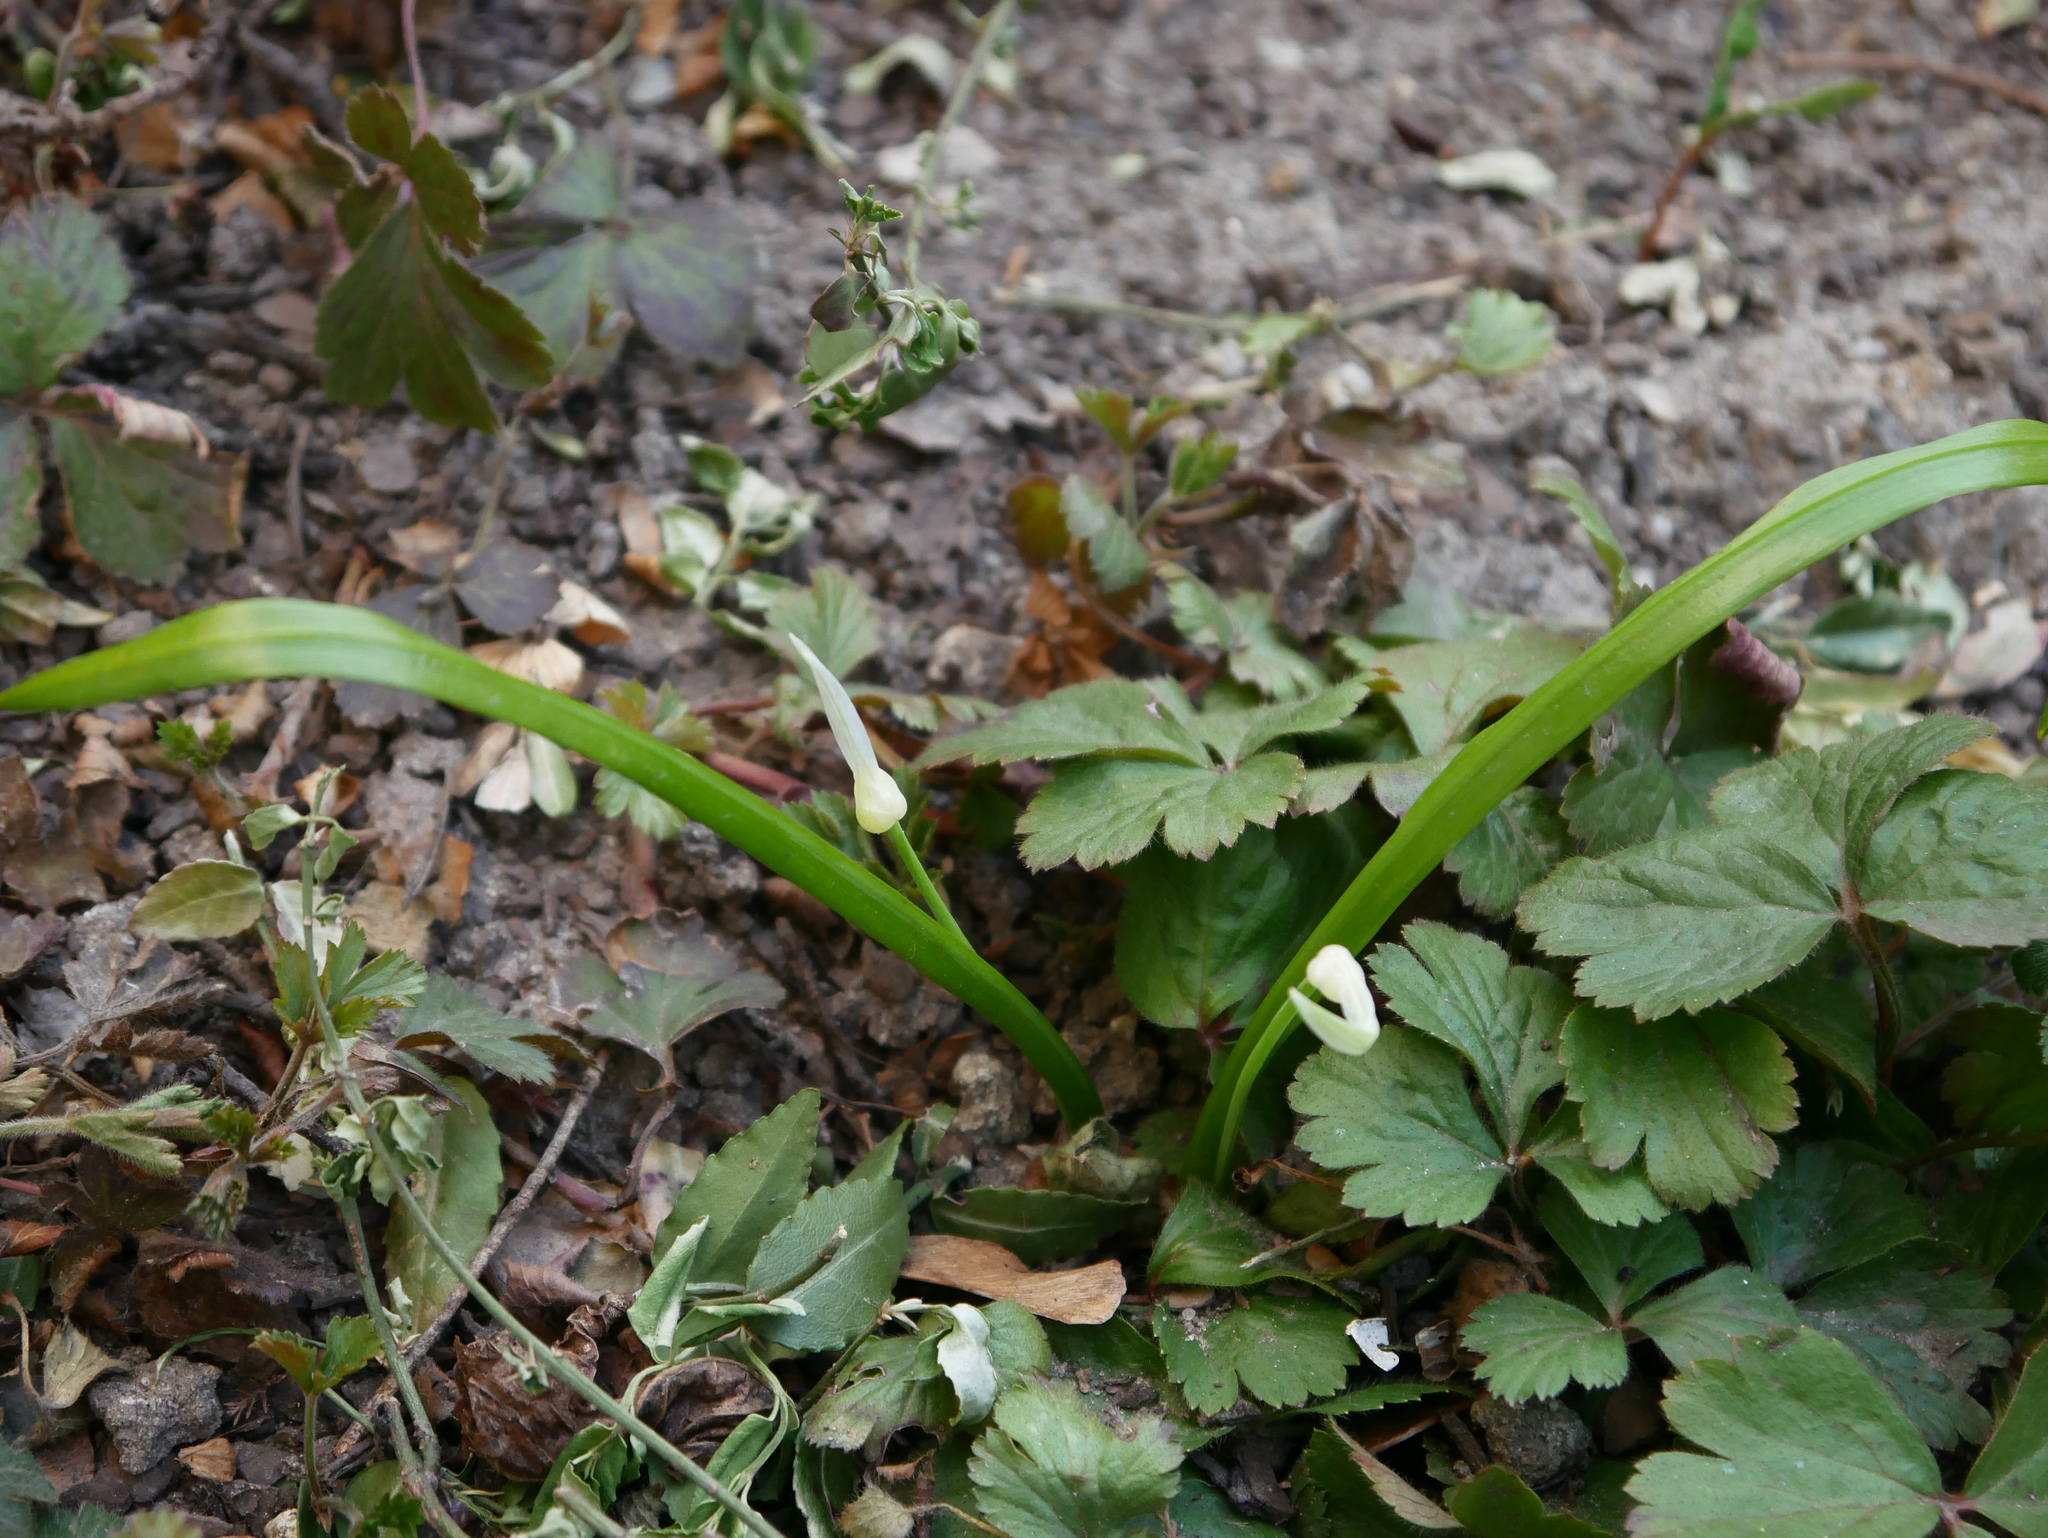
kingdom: Plantae
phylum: Tracheophyta
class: Liliopsida
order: Asparagales
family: Amaryllidaceae
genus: Allium
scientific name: Allium paradoxum
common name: Few-flowered garlic
